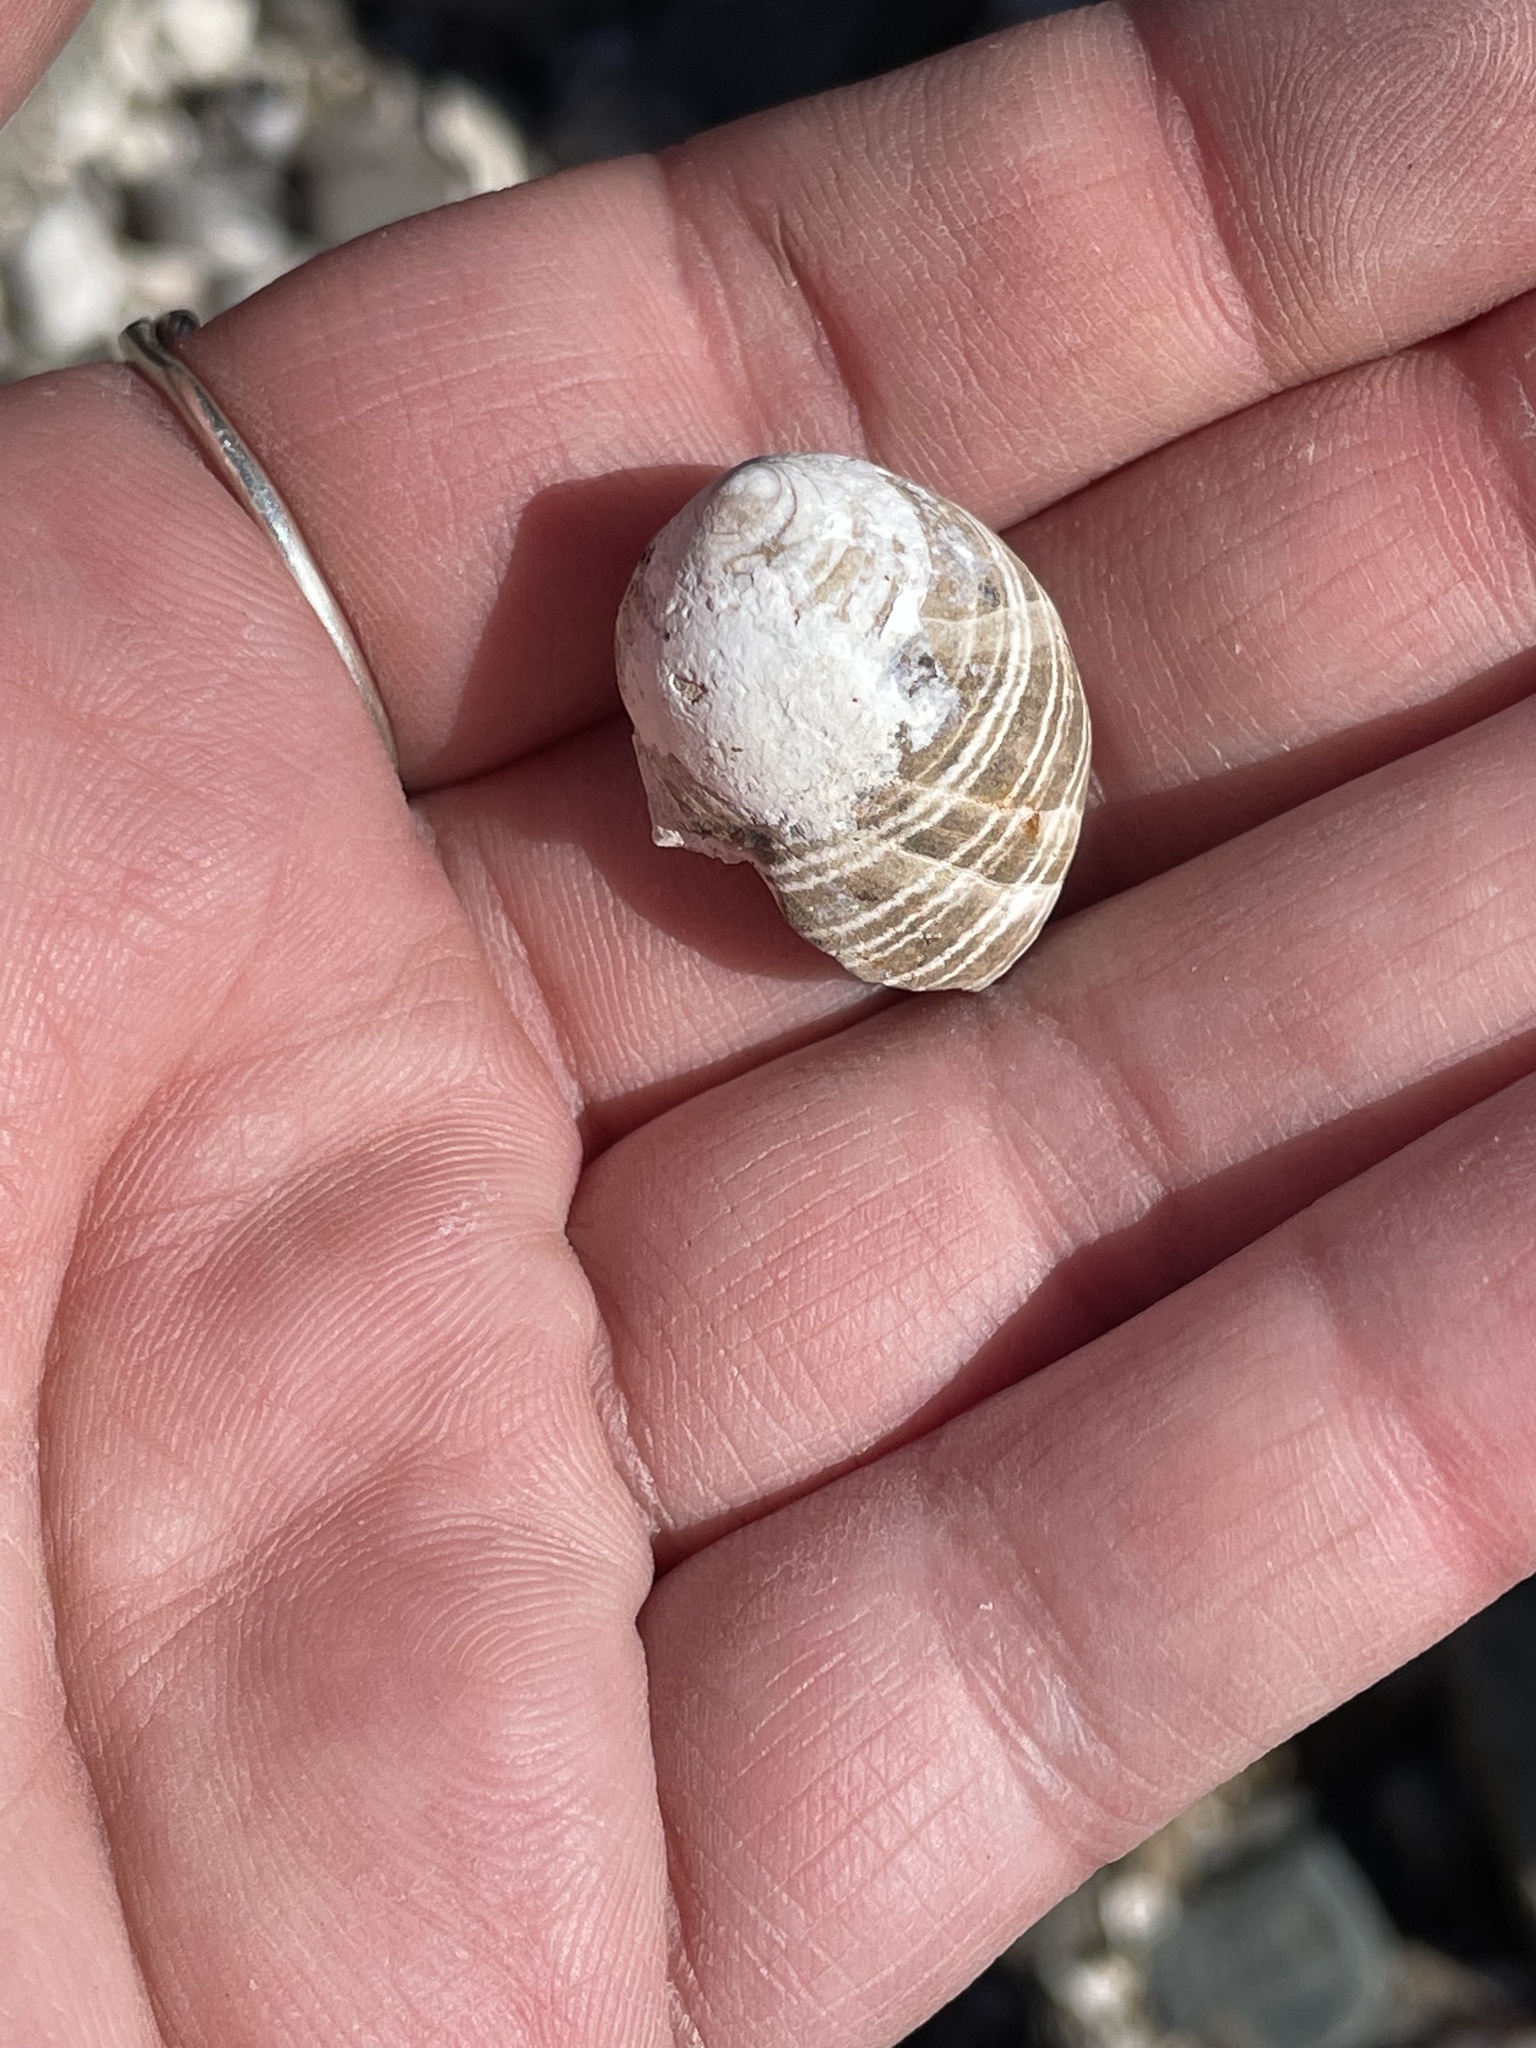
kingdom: Animalia
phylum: Mollusca
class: Gastropoda
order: Littorinimorpha
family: Littorinidae
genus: Littorina
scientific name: Littorina littorea
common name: Common periwinkle
